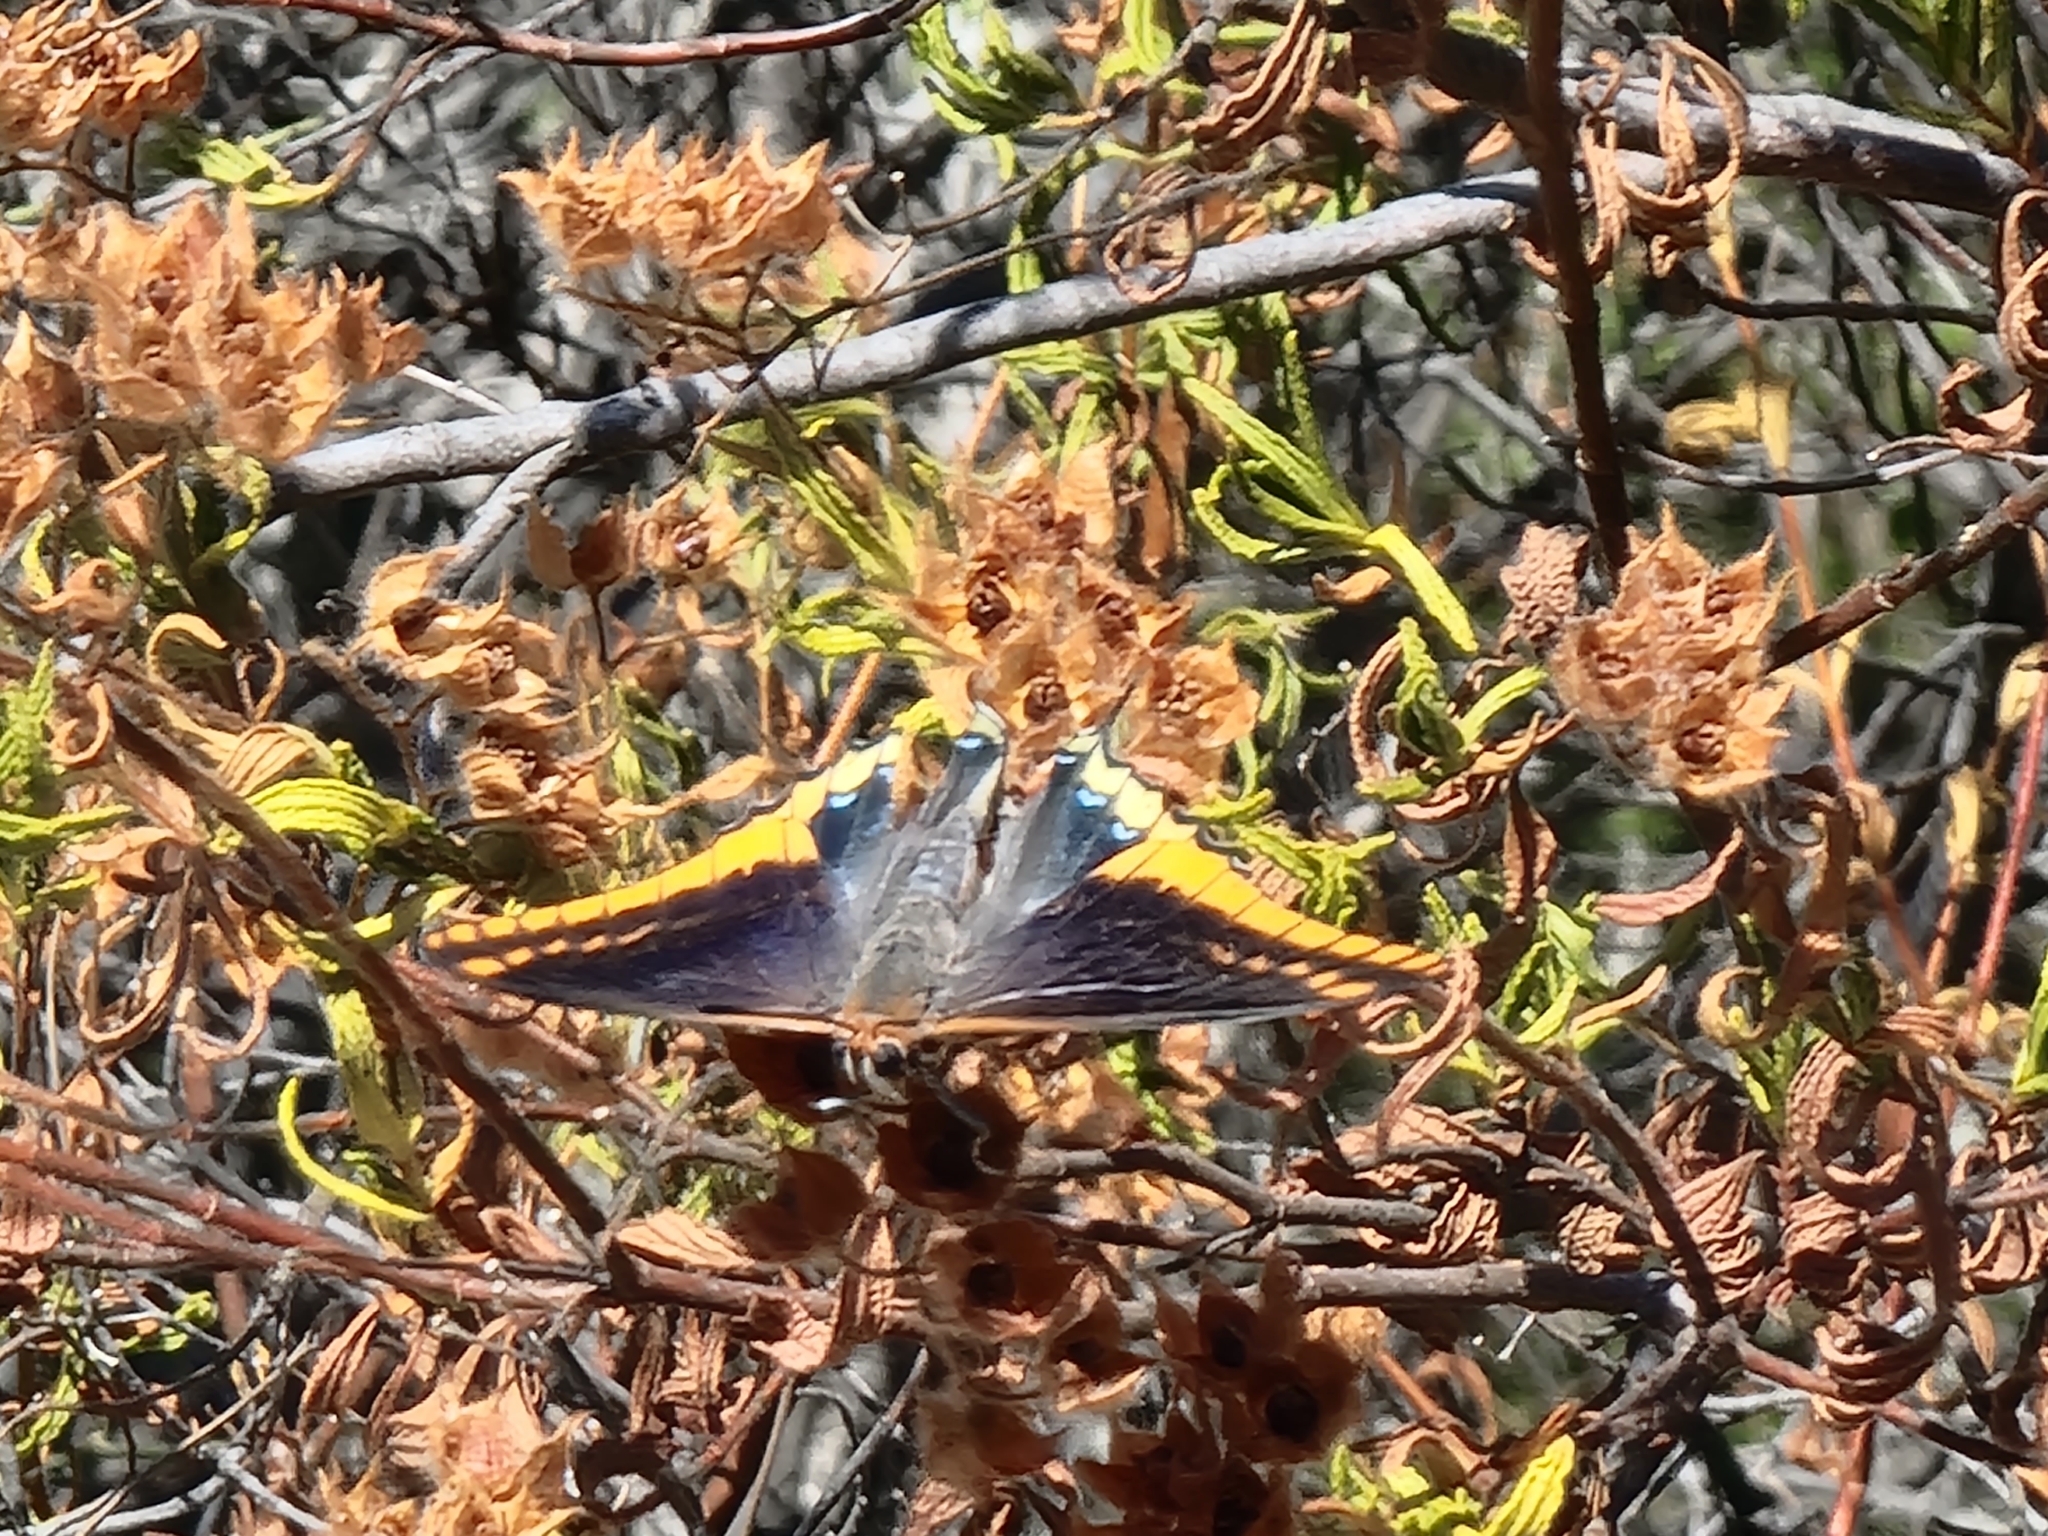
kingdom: Animalia
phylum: Arthropoda
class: Insecta
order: Lepidoptera
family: Nymphalidae
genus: Charaxes
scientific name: Charaxes jasius
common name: Two tailed pasha
